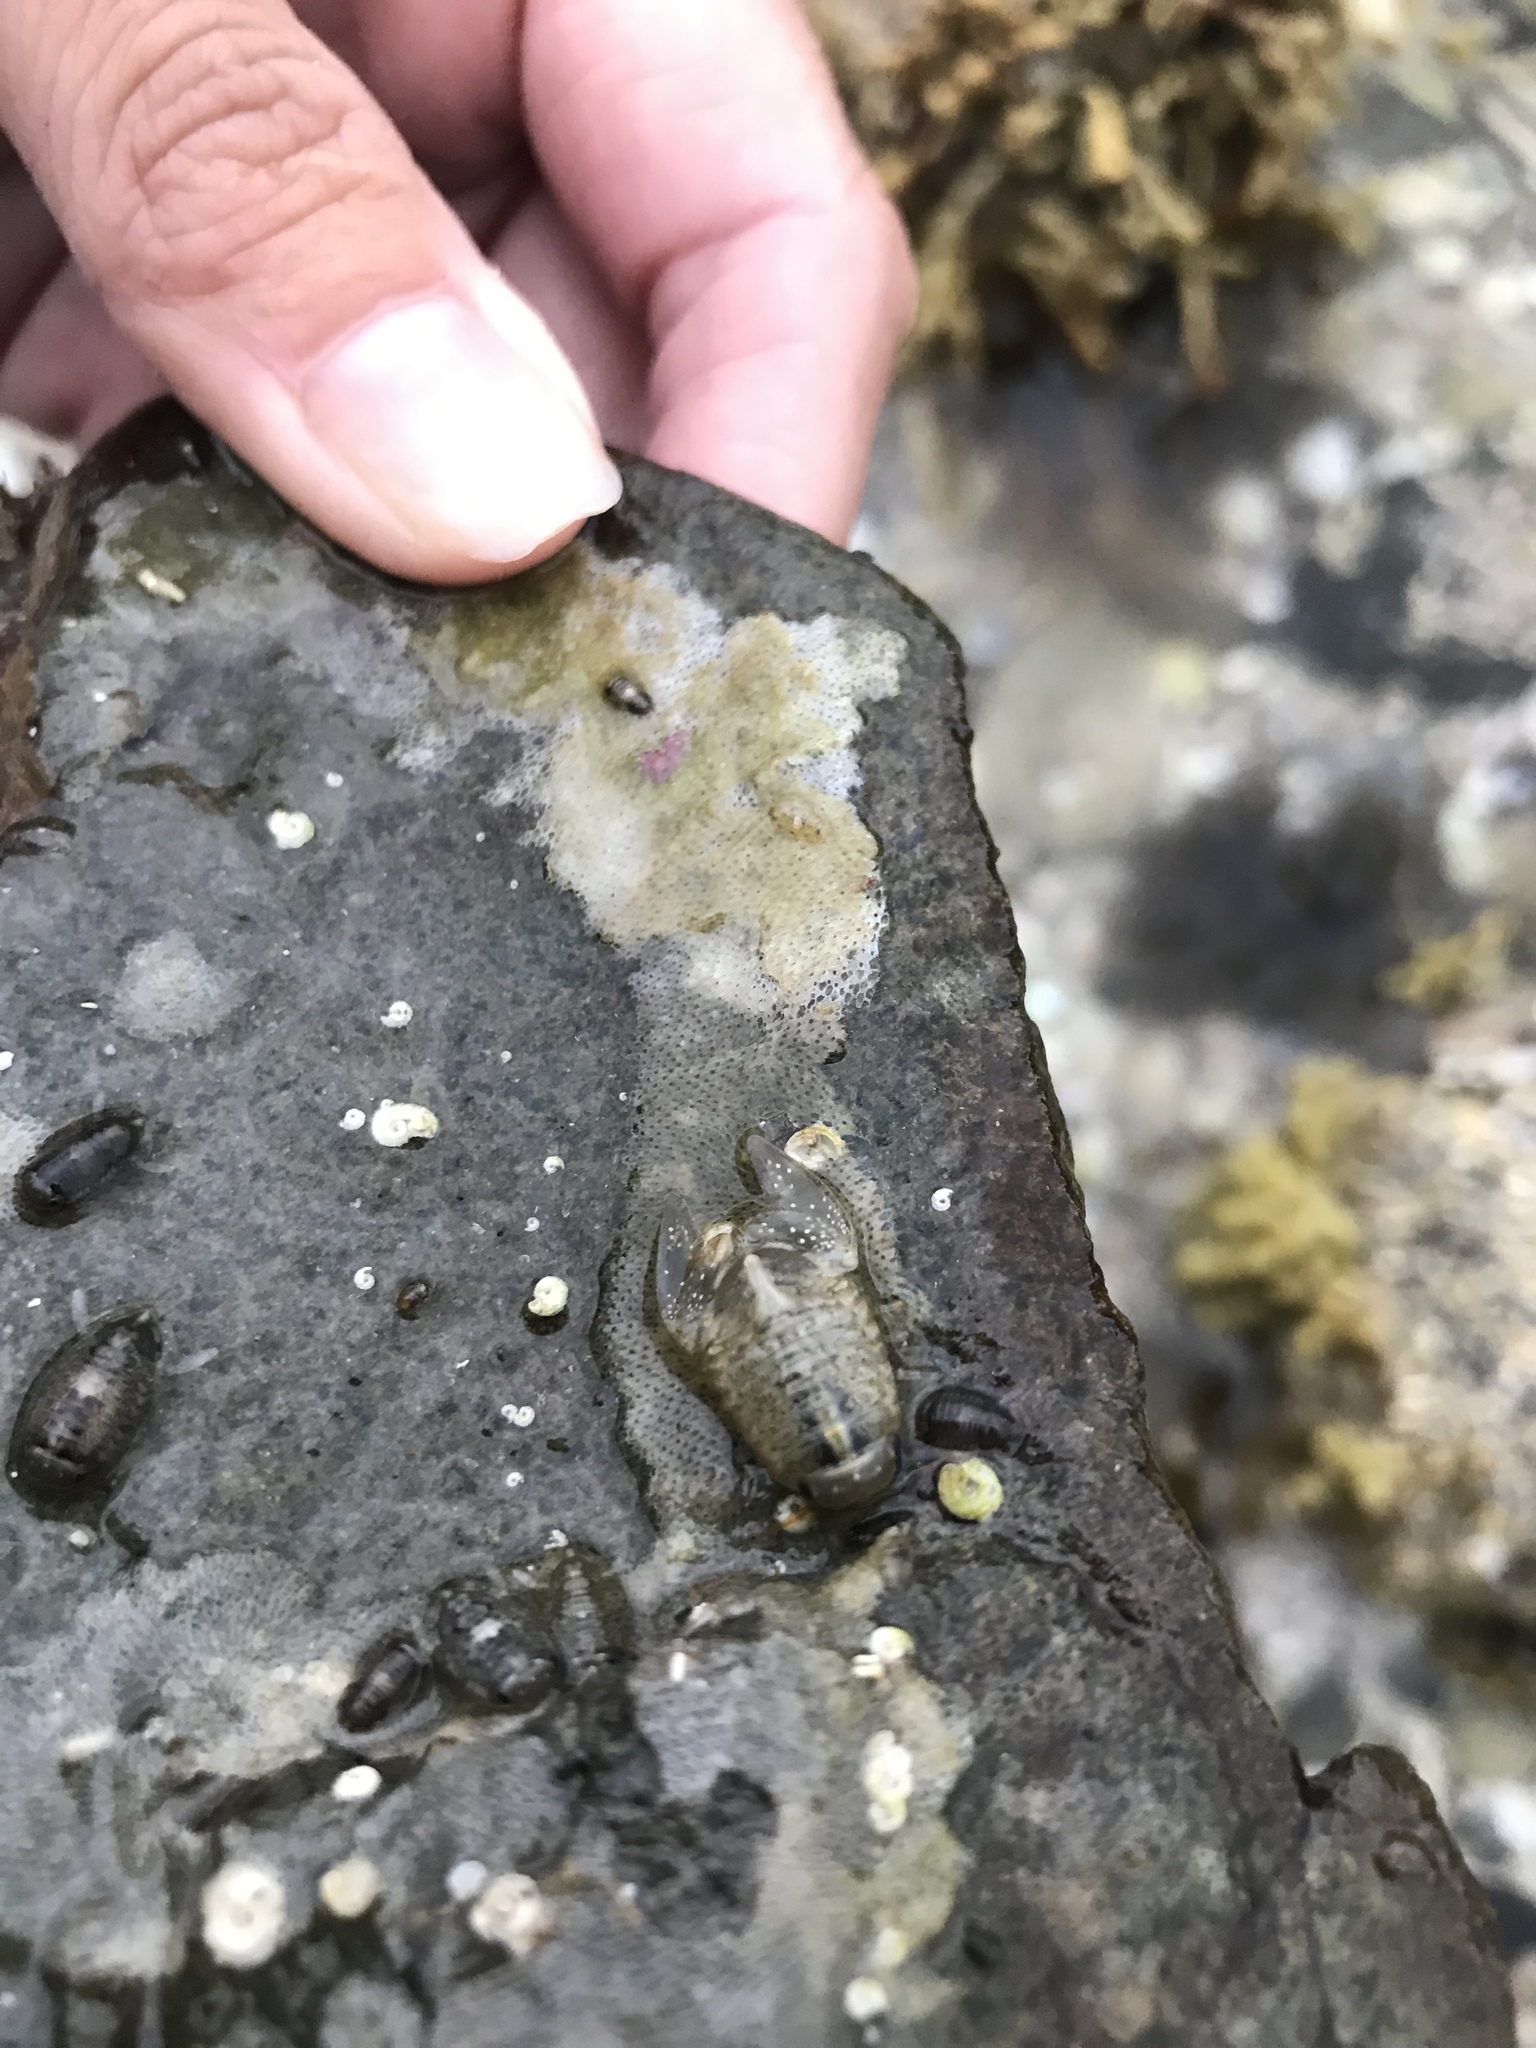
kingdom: Animalia
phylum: Arthropoda
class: Malacostraca
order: Isopoda
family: Sphaeromatidae
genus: Zuzara
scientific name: Zuzara venosa
